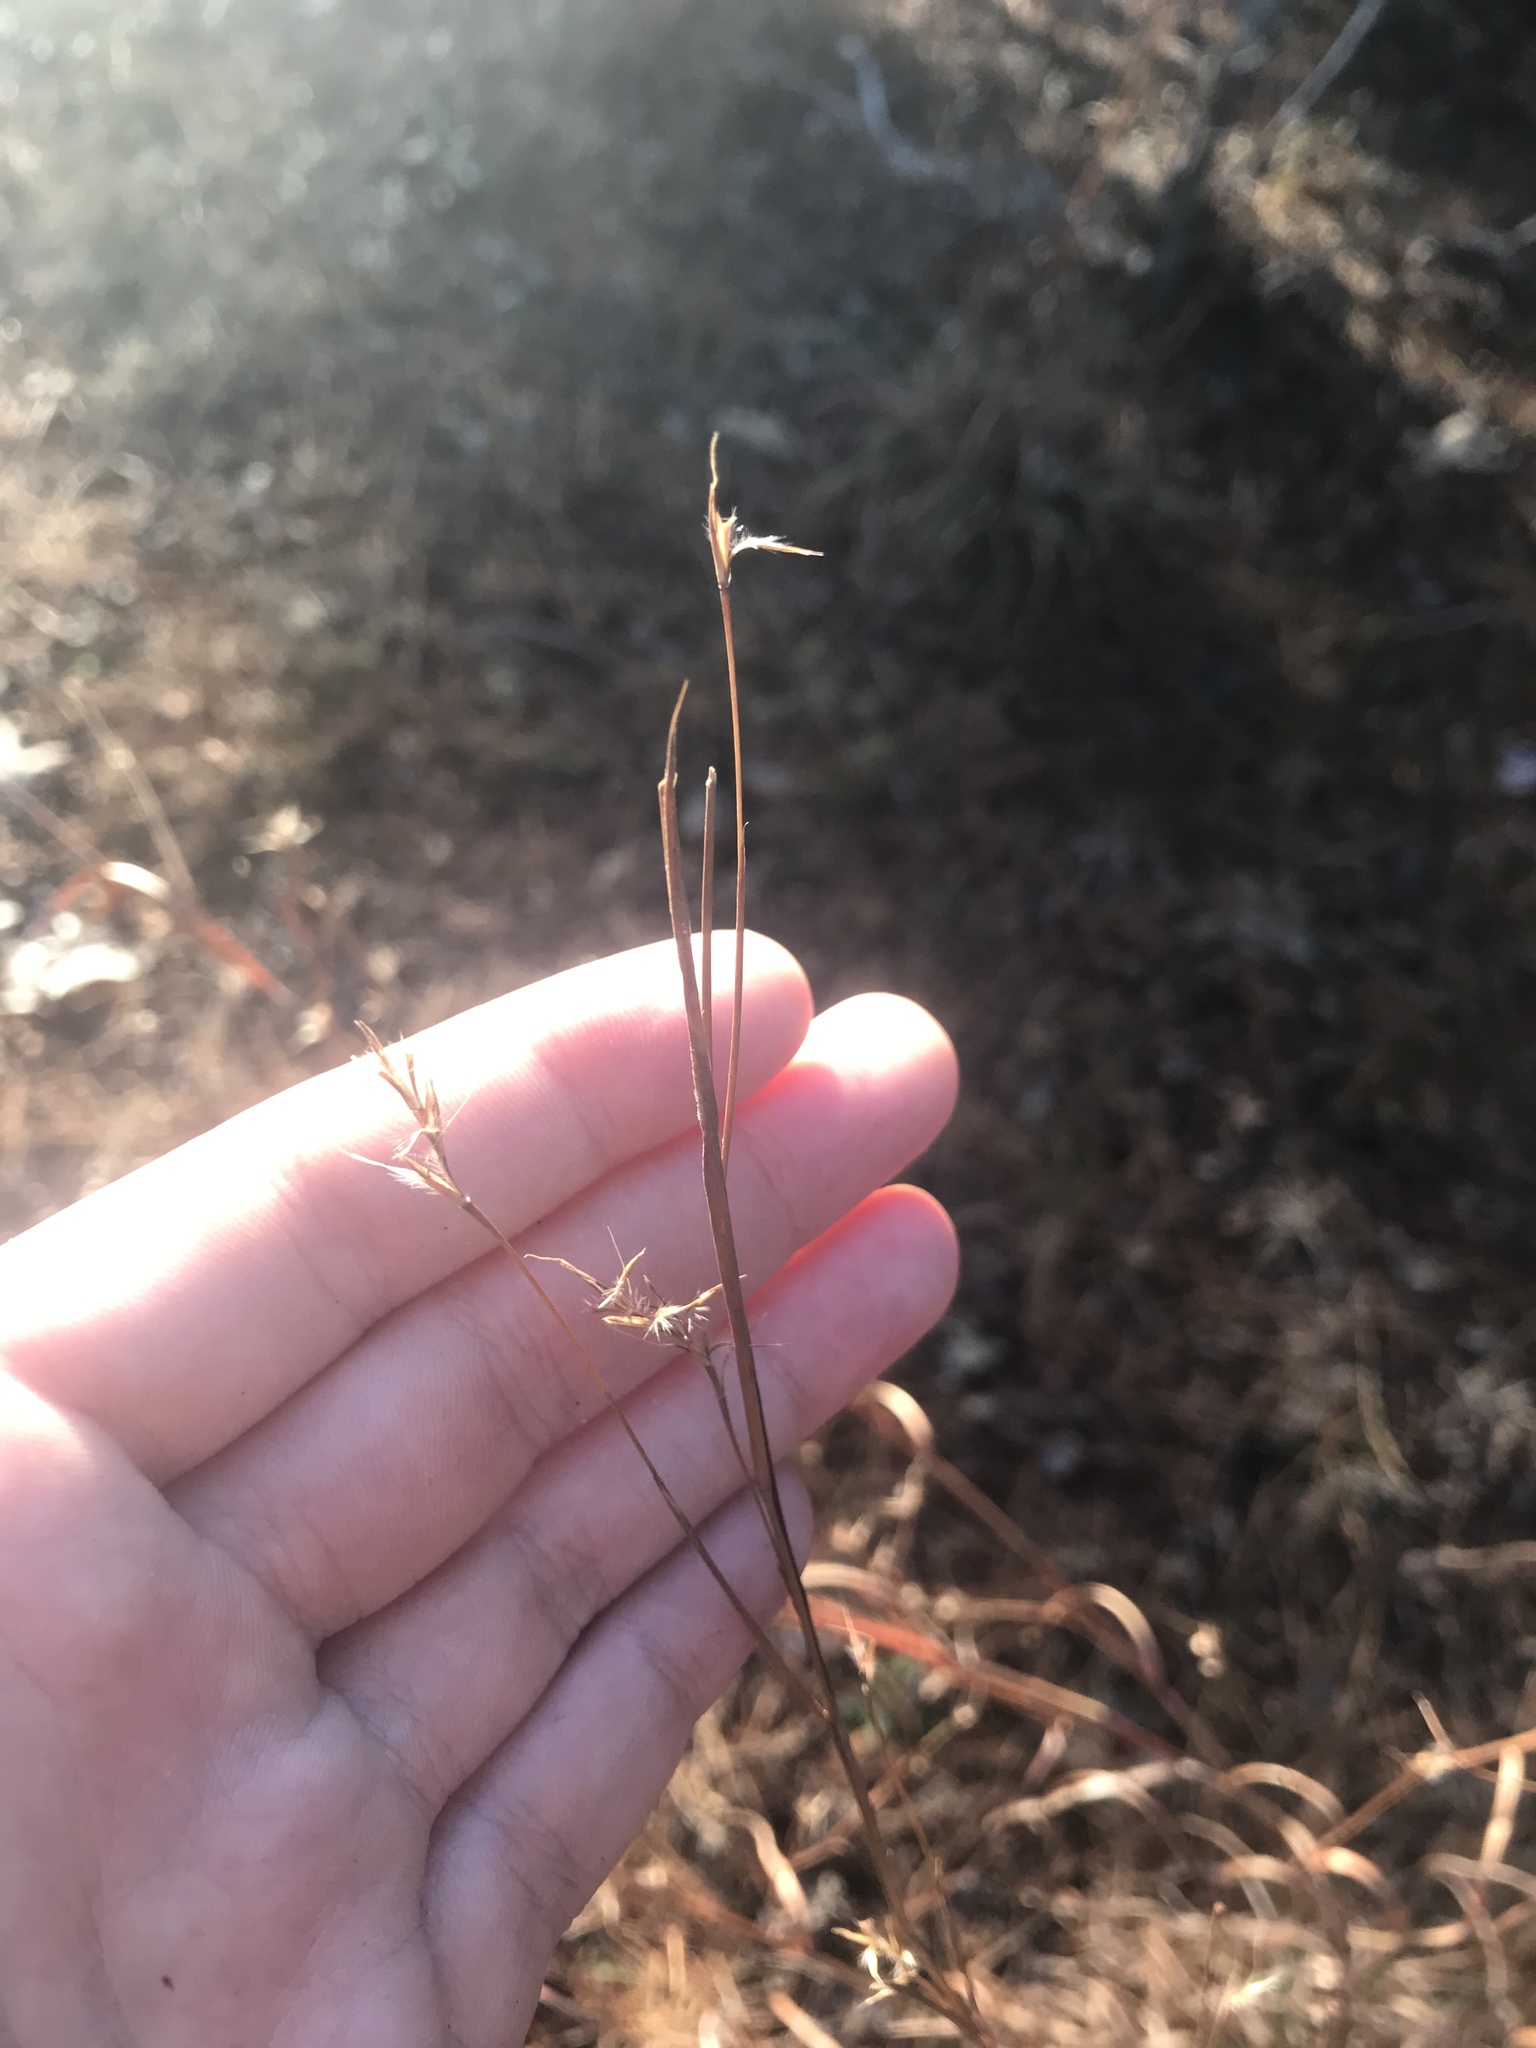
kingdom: Plantae
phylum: Tracheophyta
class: Liliopsida
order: Poales
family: Poaceae
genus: Schizachyrium
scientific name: Schizachyrium scoparium
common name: Little bluestem
